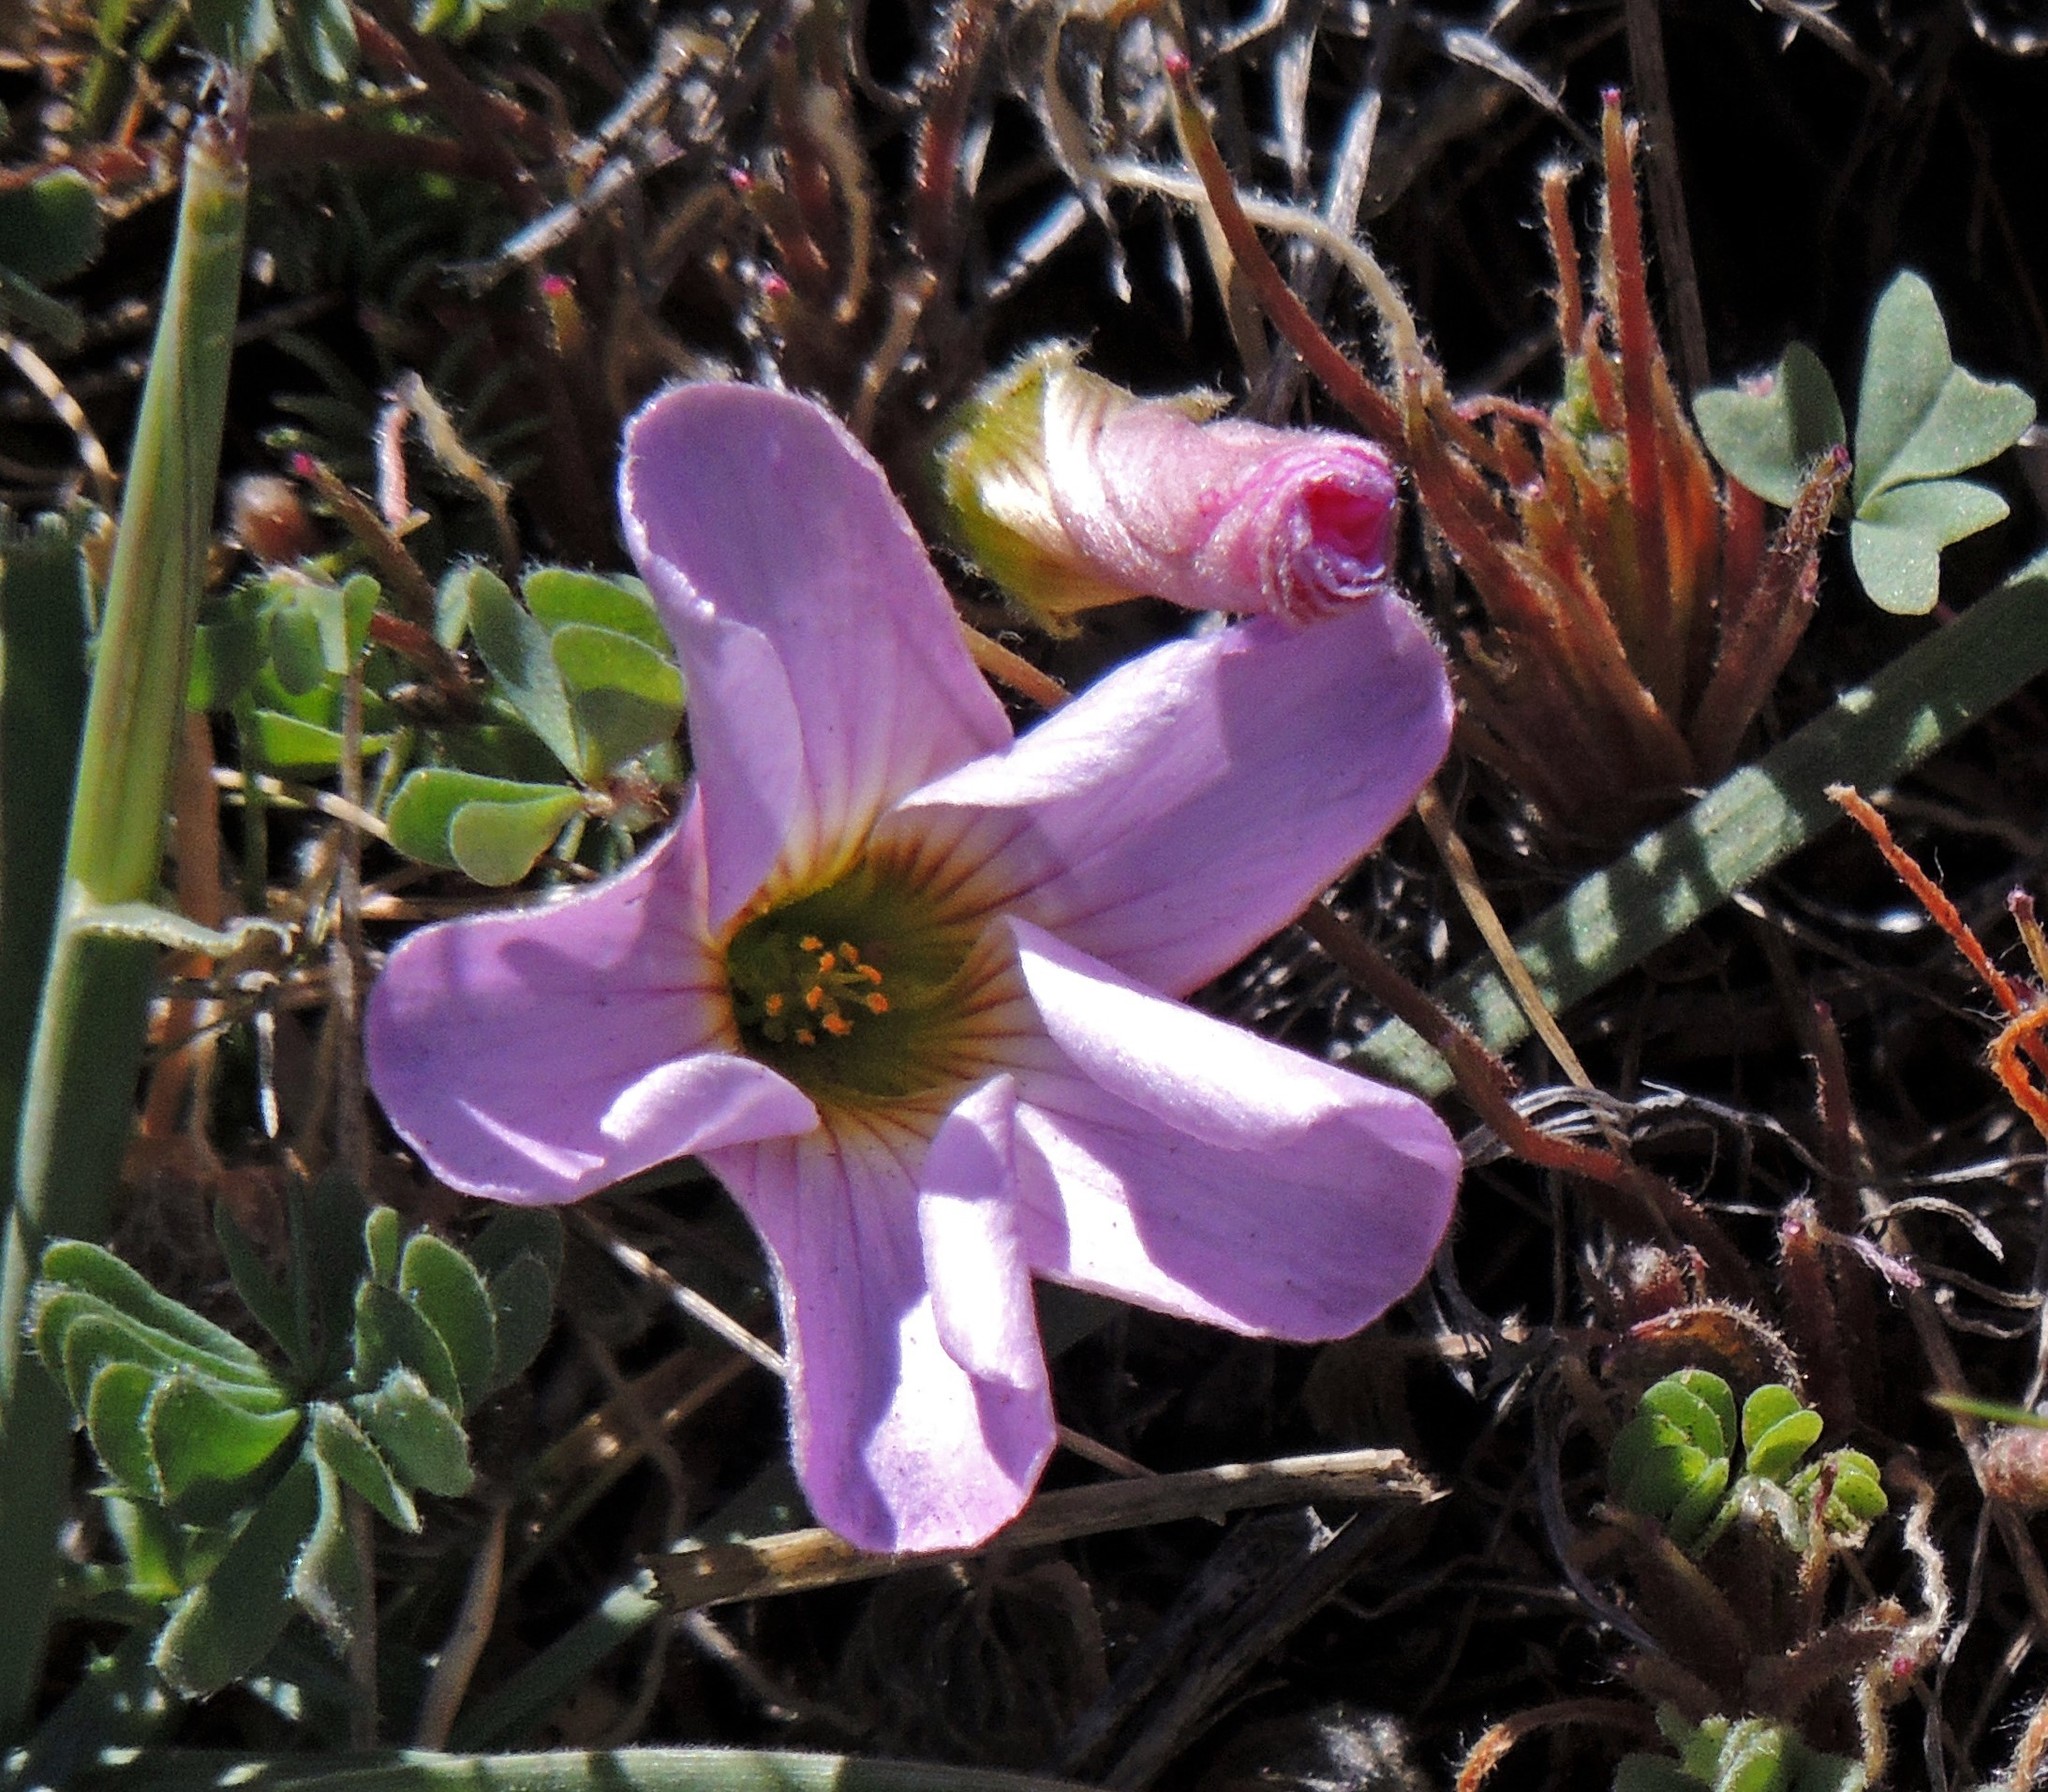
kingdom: Plantae
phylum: Tracheophyta
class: Magnoliopsida
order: Oxalidales
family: Oxalidaceae
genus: Oxalis
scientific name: Oxalis enneaphylla
